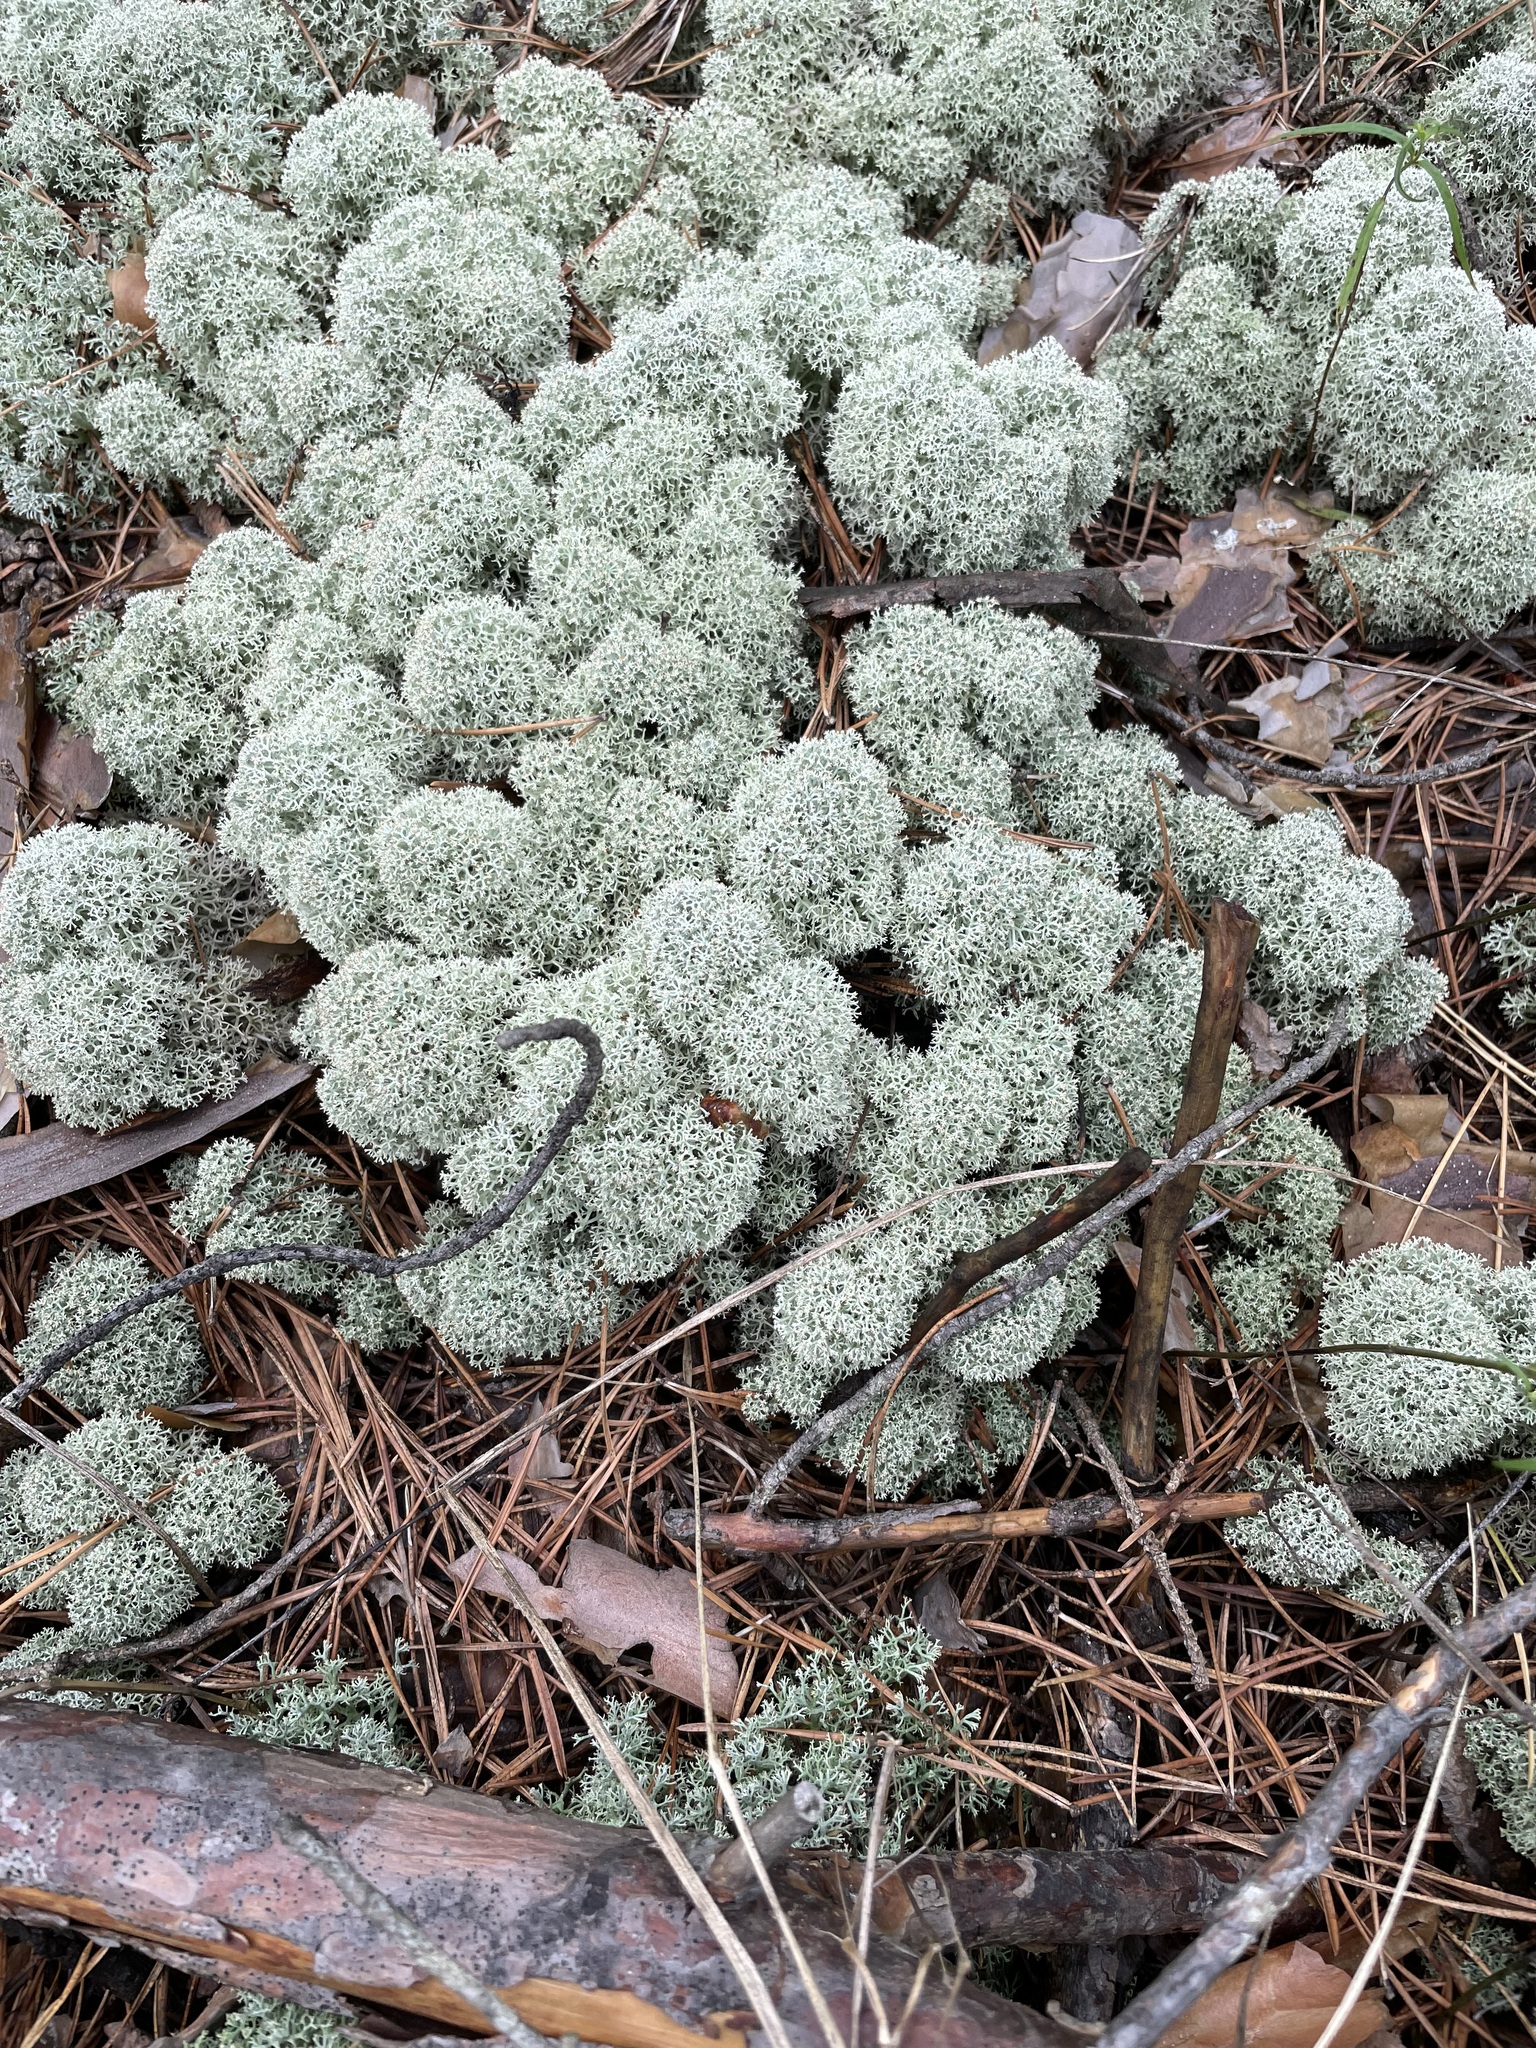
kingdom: Fungi
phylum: Ascomycota
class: Lecanoromycetes
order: Lecanorales
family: Cladoniaceae
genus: Cladonia
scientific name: Cladonia stellaris
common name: Star-tipped reindeer lichen
